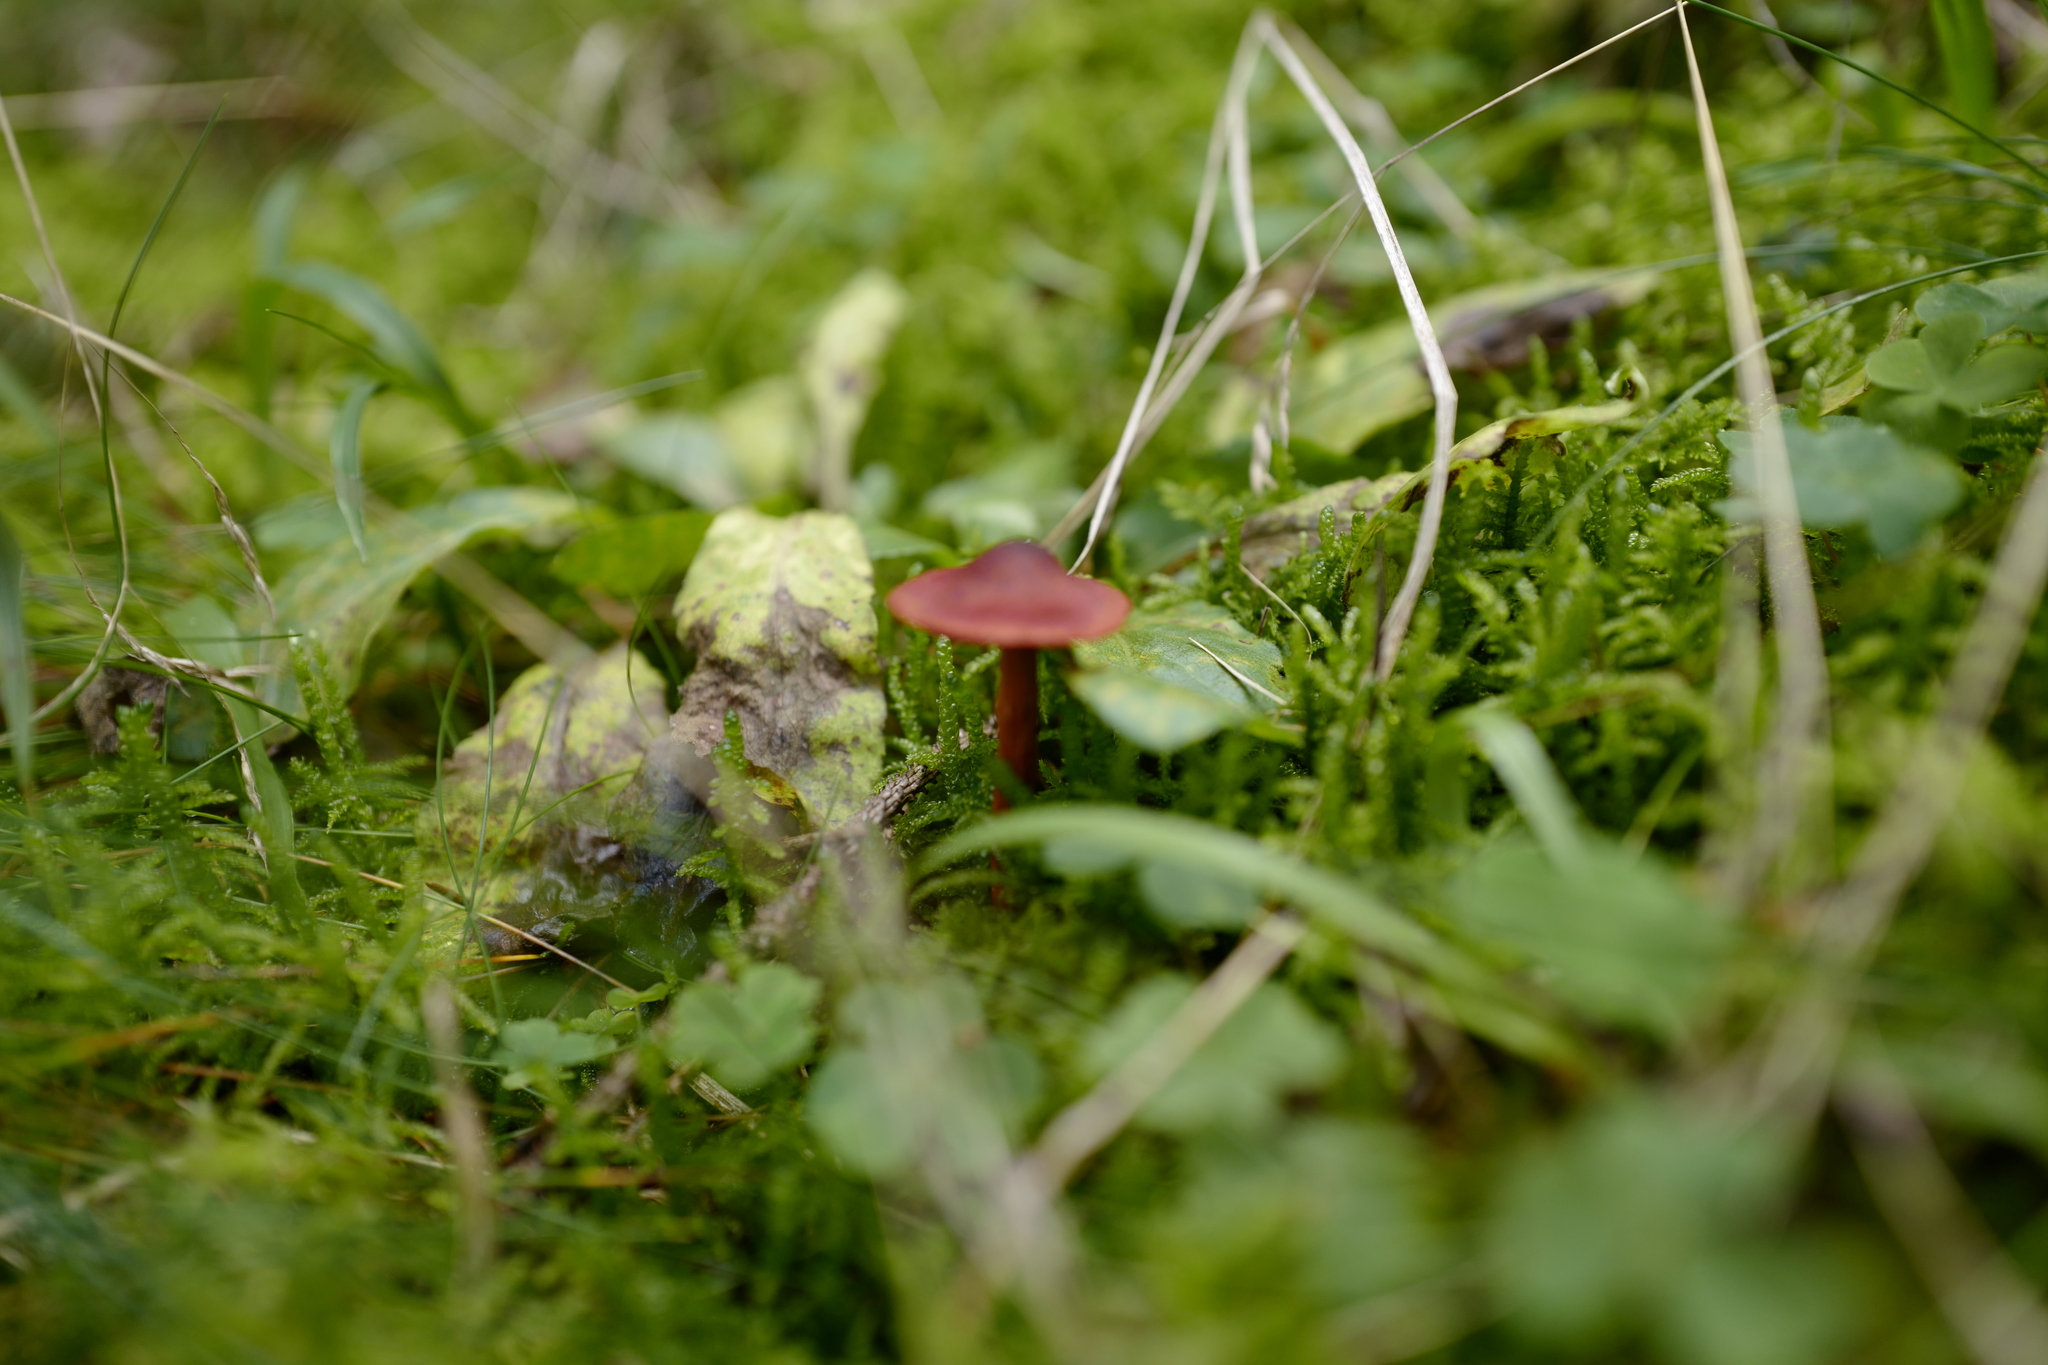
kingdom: Fungi
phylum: Basidiomycota
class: Agaricomycetes
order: Agaricales
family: Cortinariaceae
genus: Cortinarius
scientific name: Cortinarius sanguineus
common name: Bloodred webcap
